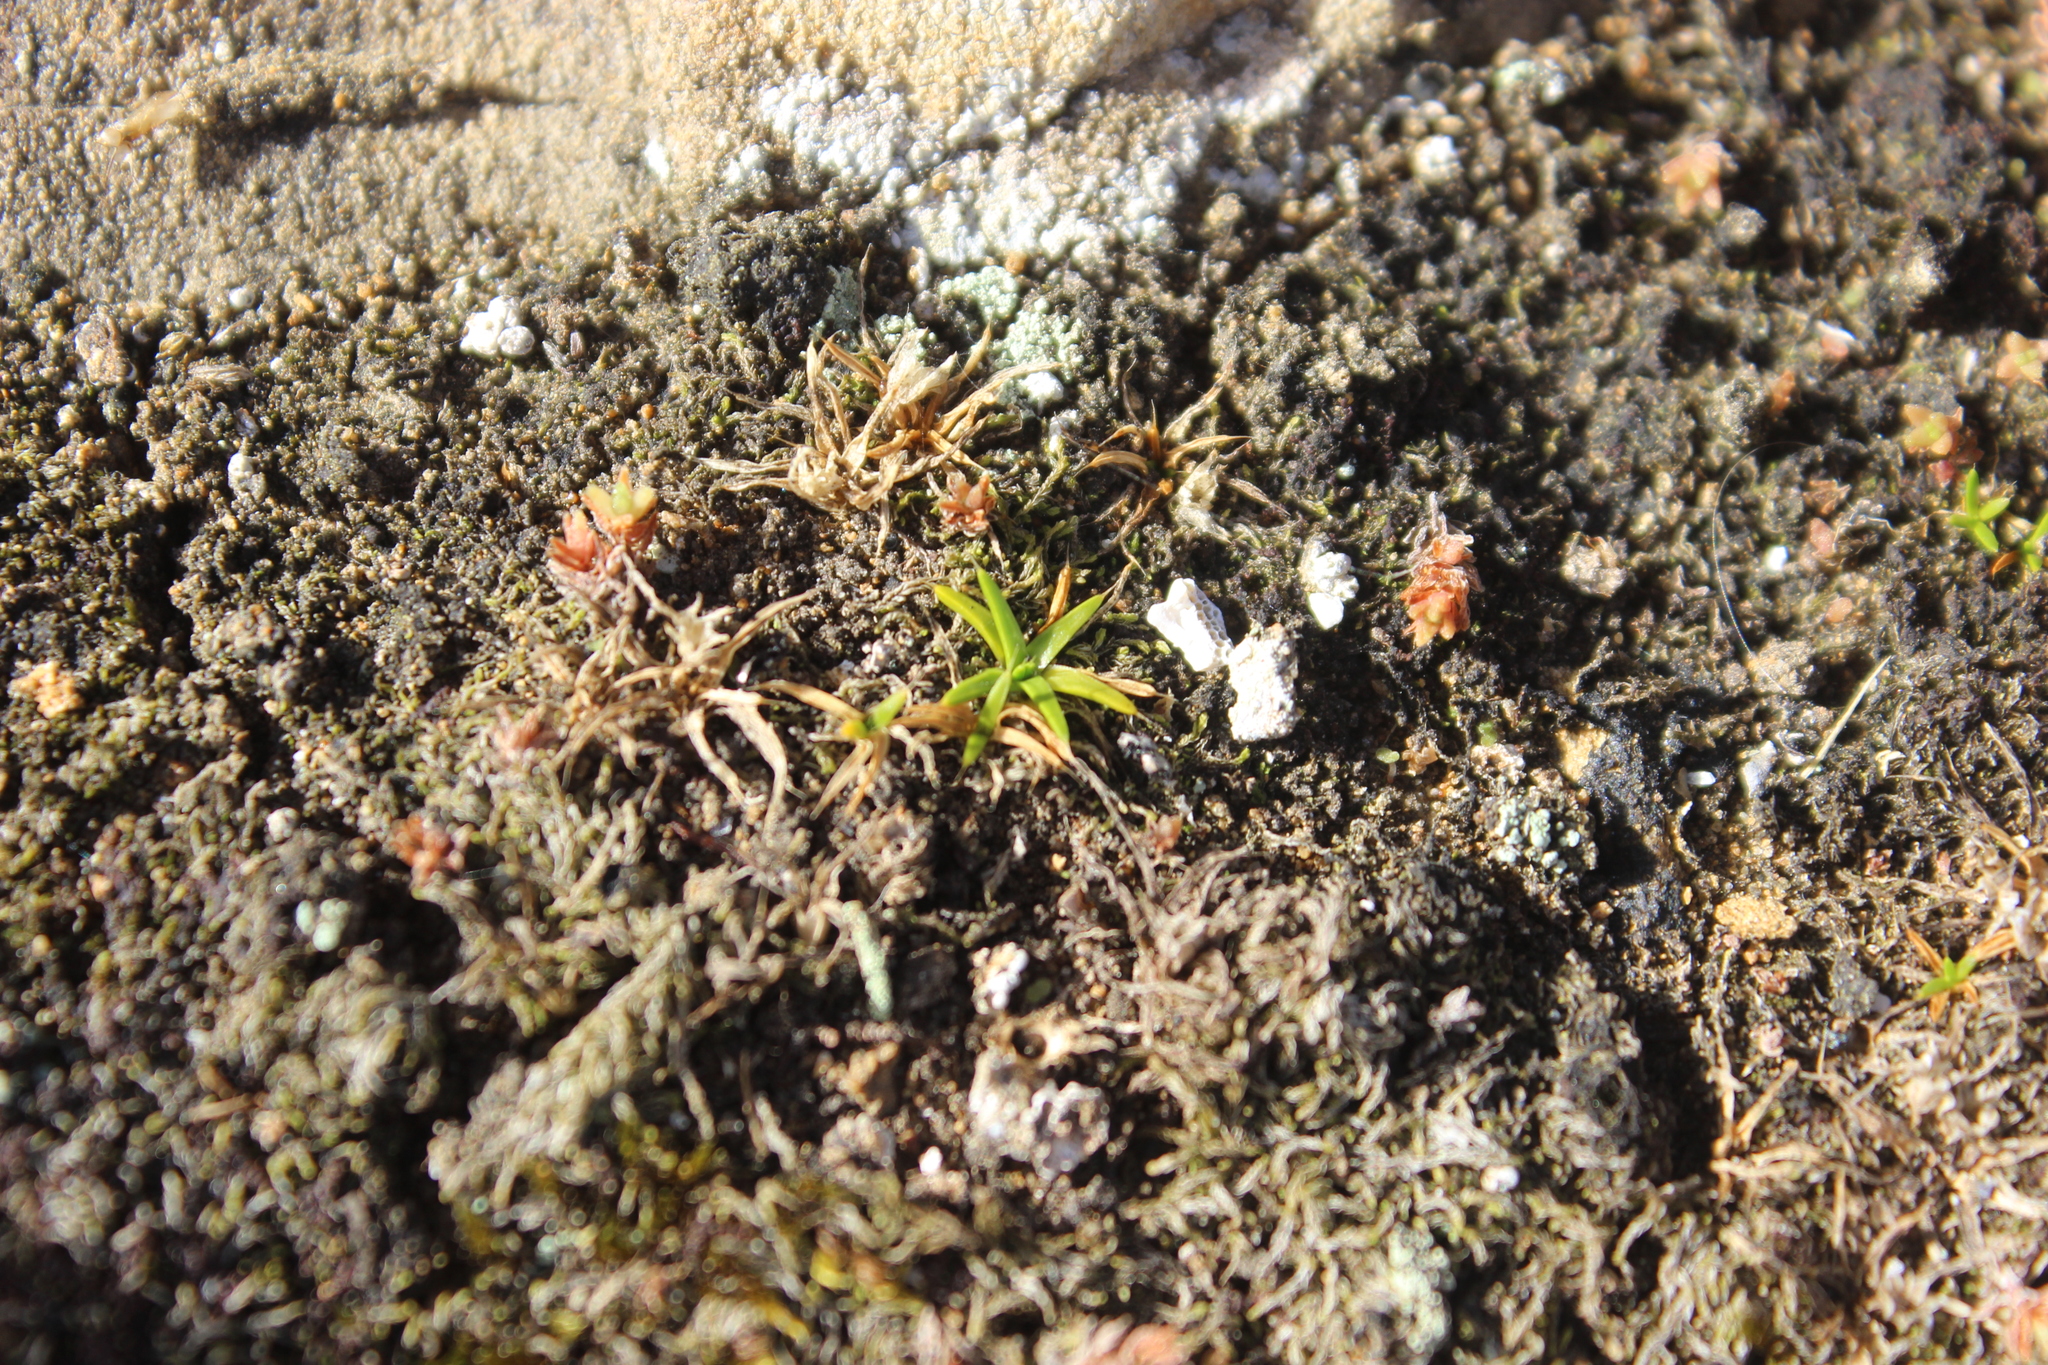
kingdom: Plantae
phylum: Tracheophyta
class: Magnoliopsida
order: Caryophyllales
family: Caryophyllaceae
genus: Colobanthus
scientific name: Colobanthus muelleri
